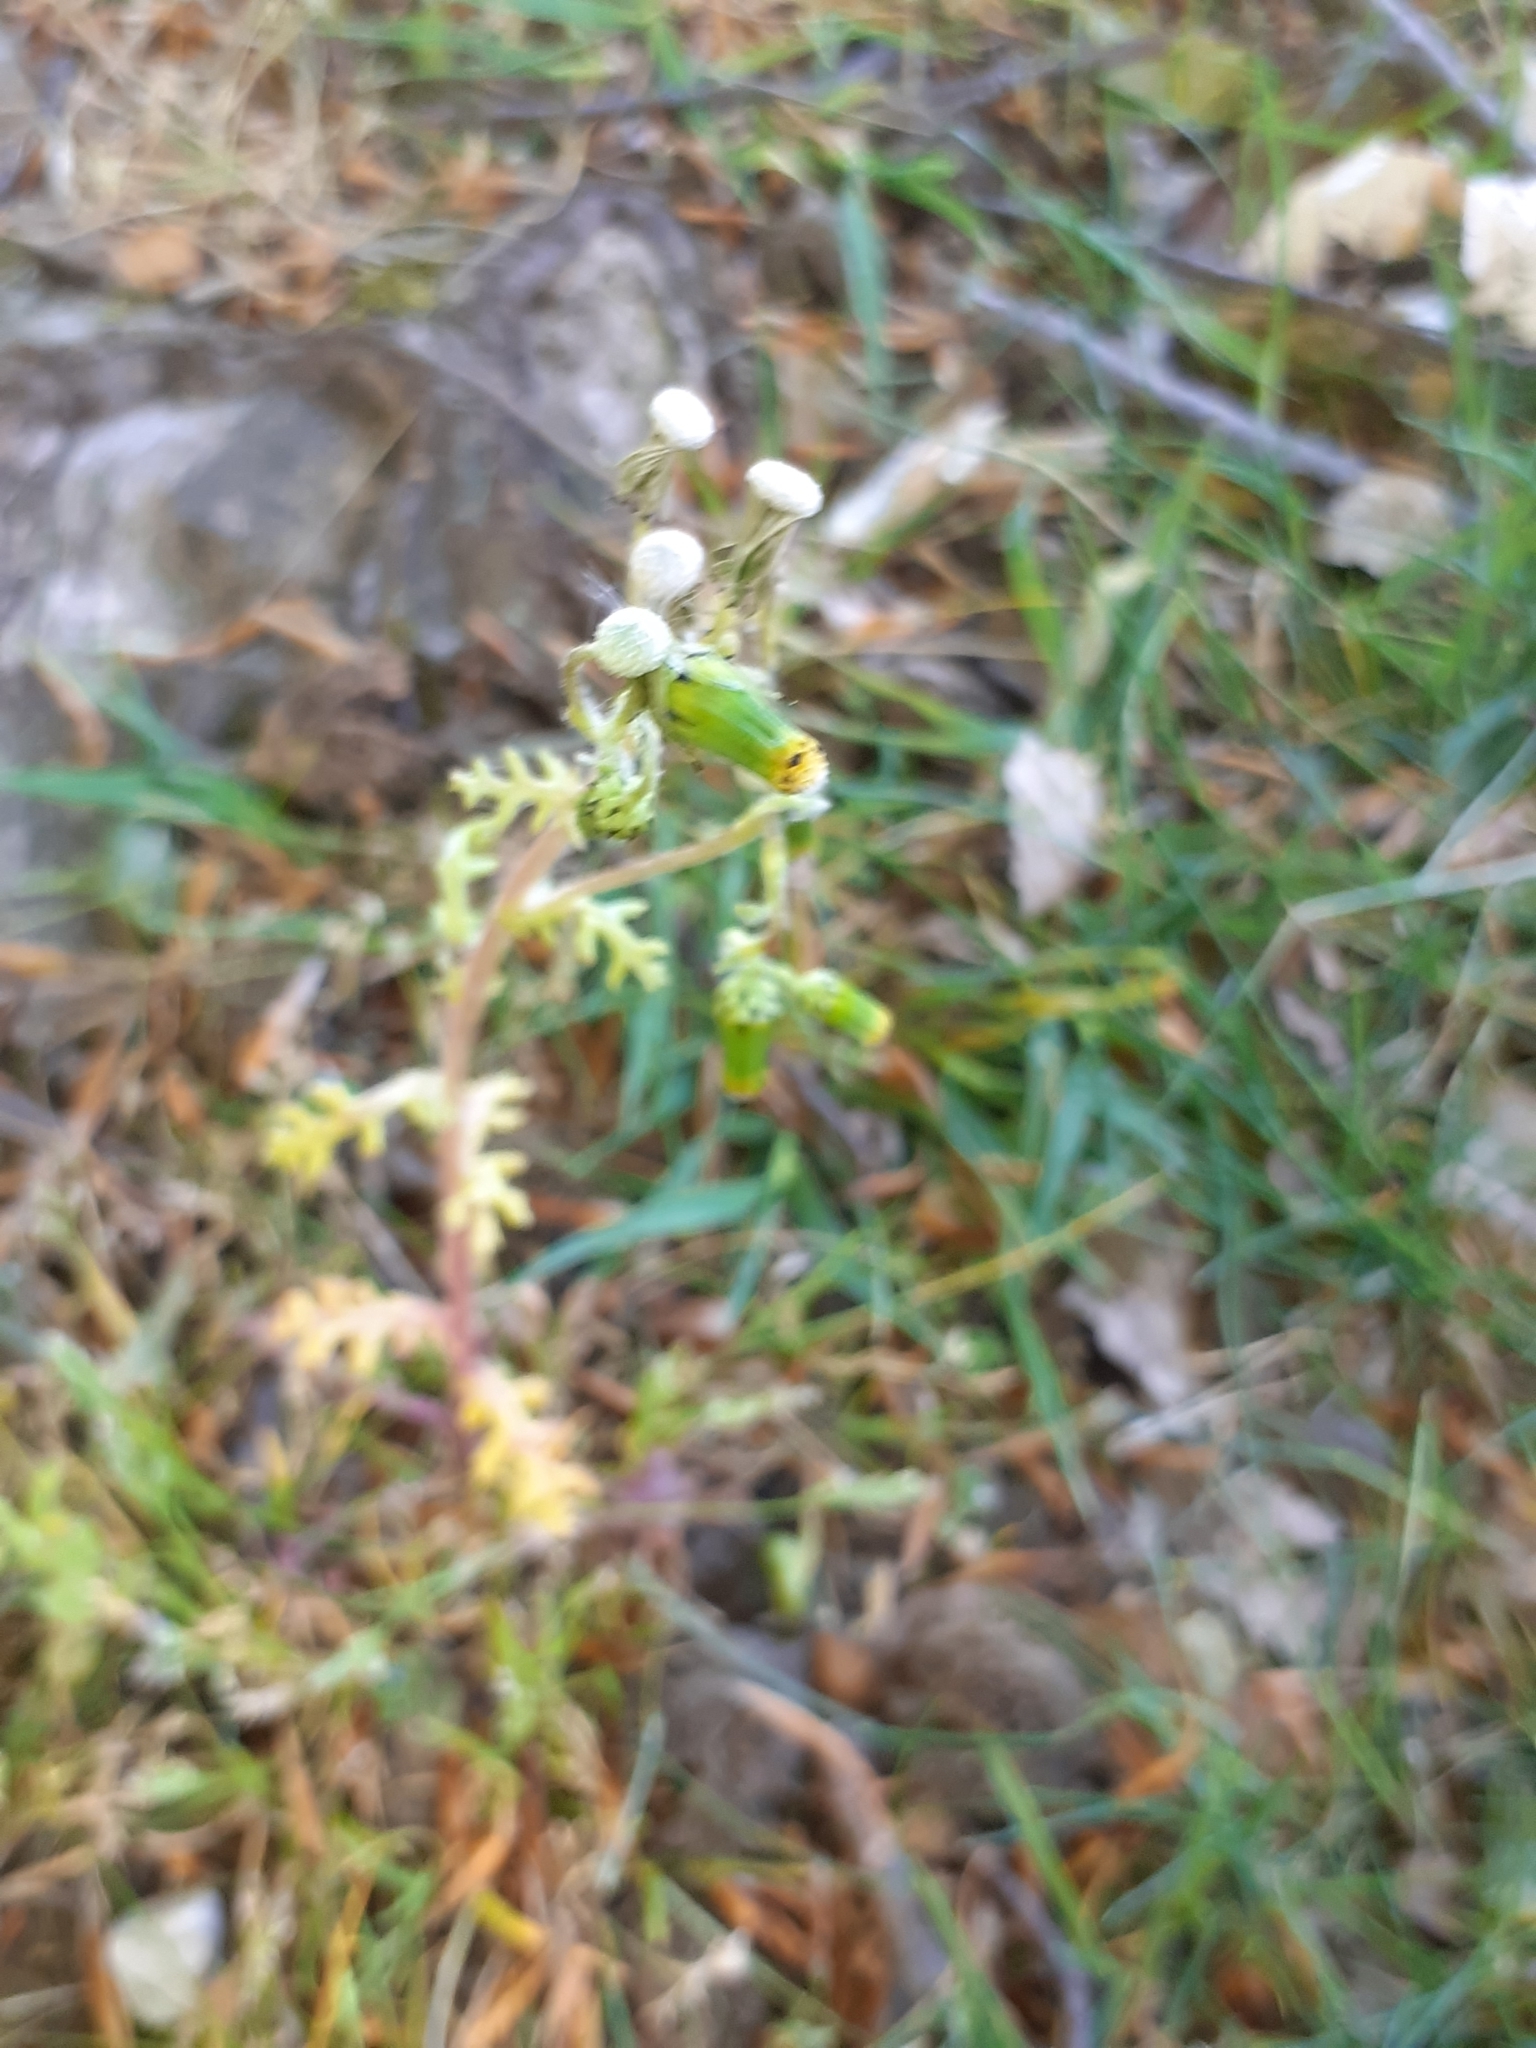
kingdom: Plantae
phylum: Tracheophyta
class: Magnoliopsida
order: Asterales
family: Asteraceae
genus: Senecio
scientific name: Senecio vulgaris
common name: Old-man-in-the-spring
